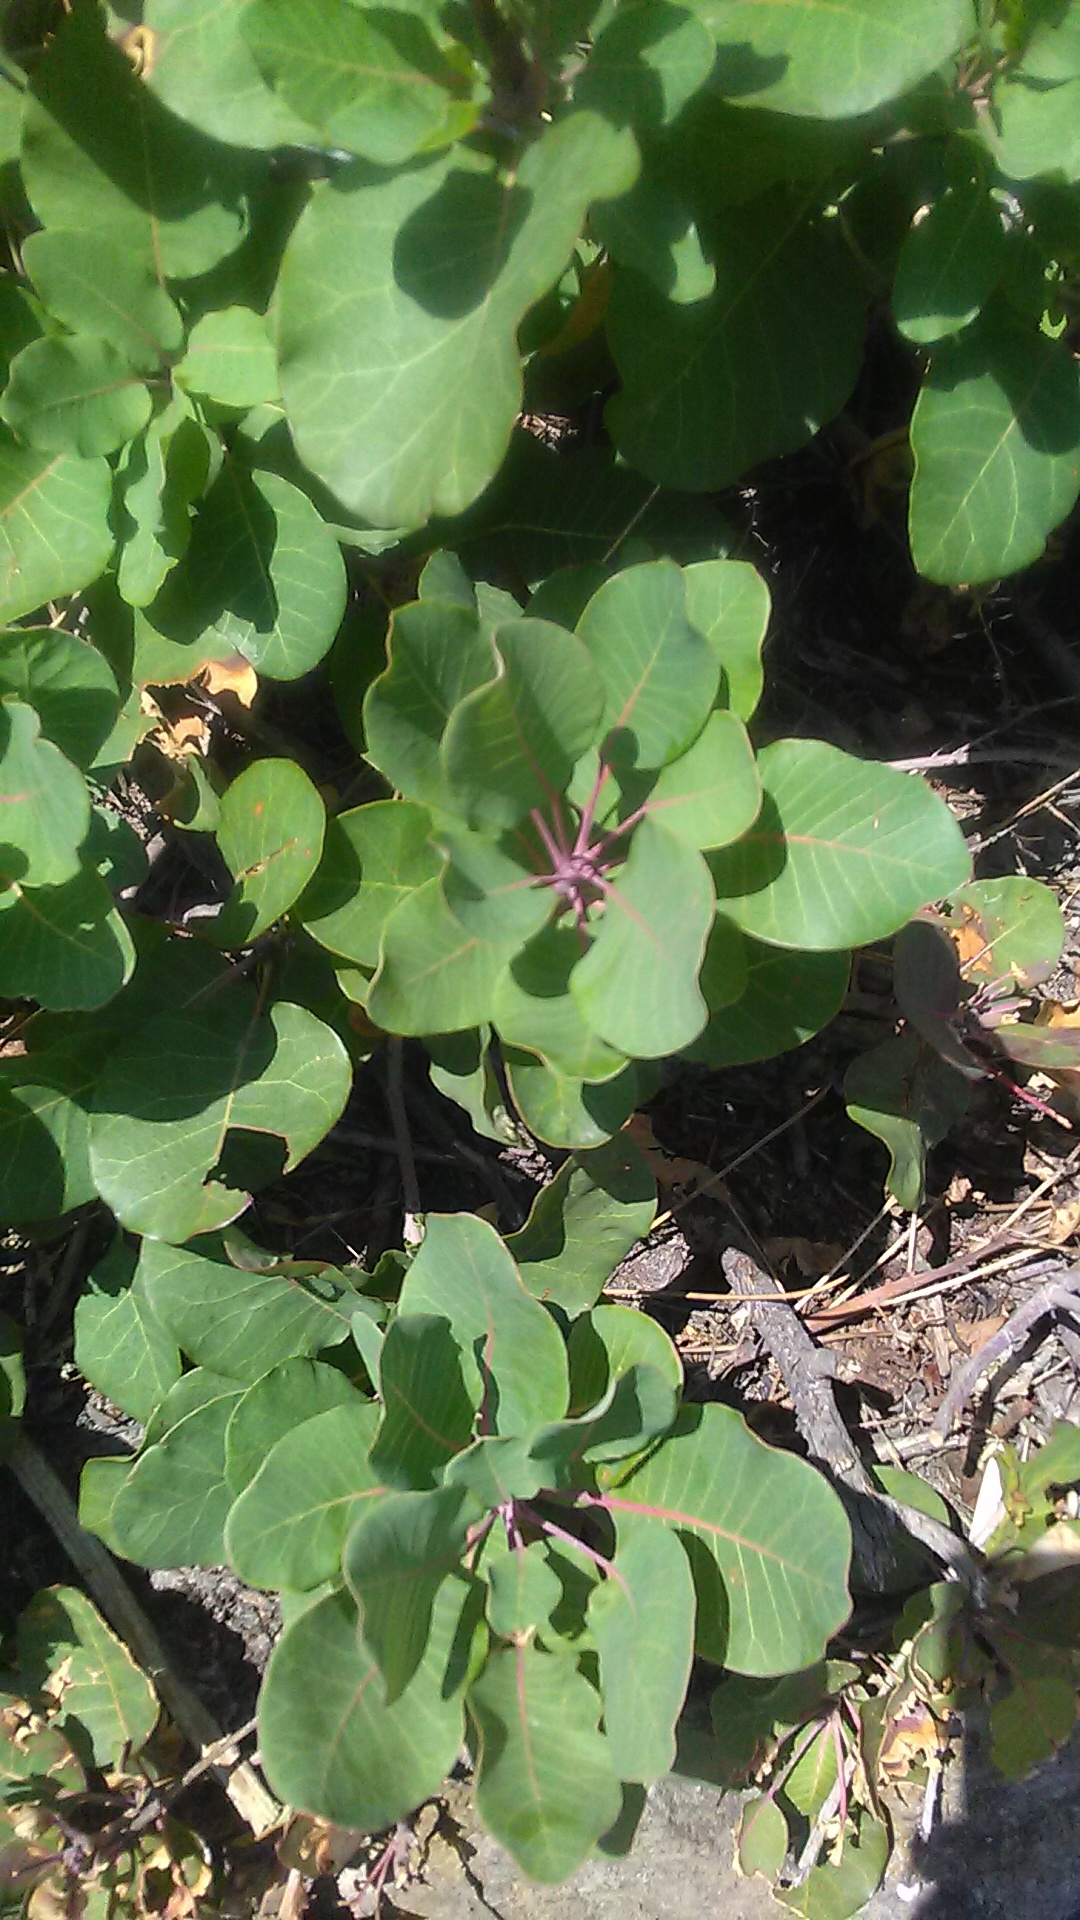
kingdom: Plantae
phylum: Tracheophyta
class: Magnoliopsida
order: Sapindales
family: Anacardiaceae
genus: Cotinus
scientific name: Cotinus coggygria
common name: Smoke-tree
